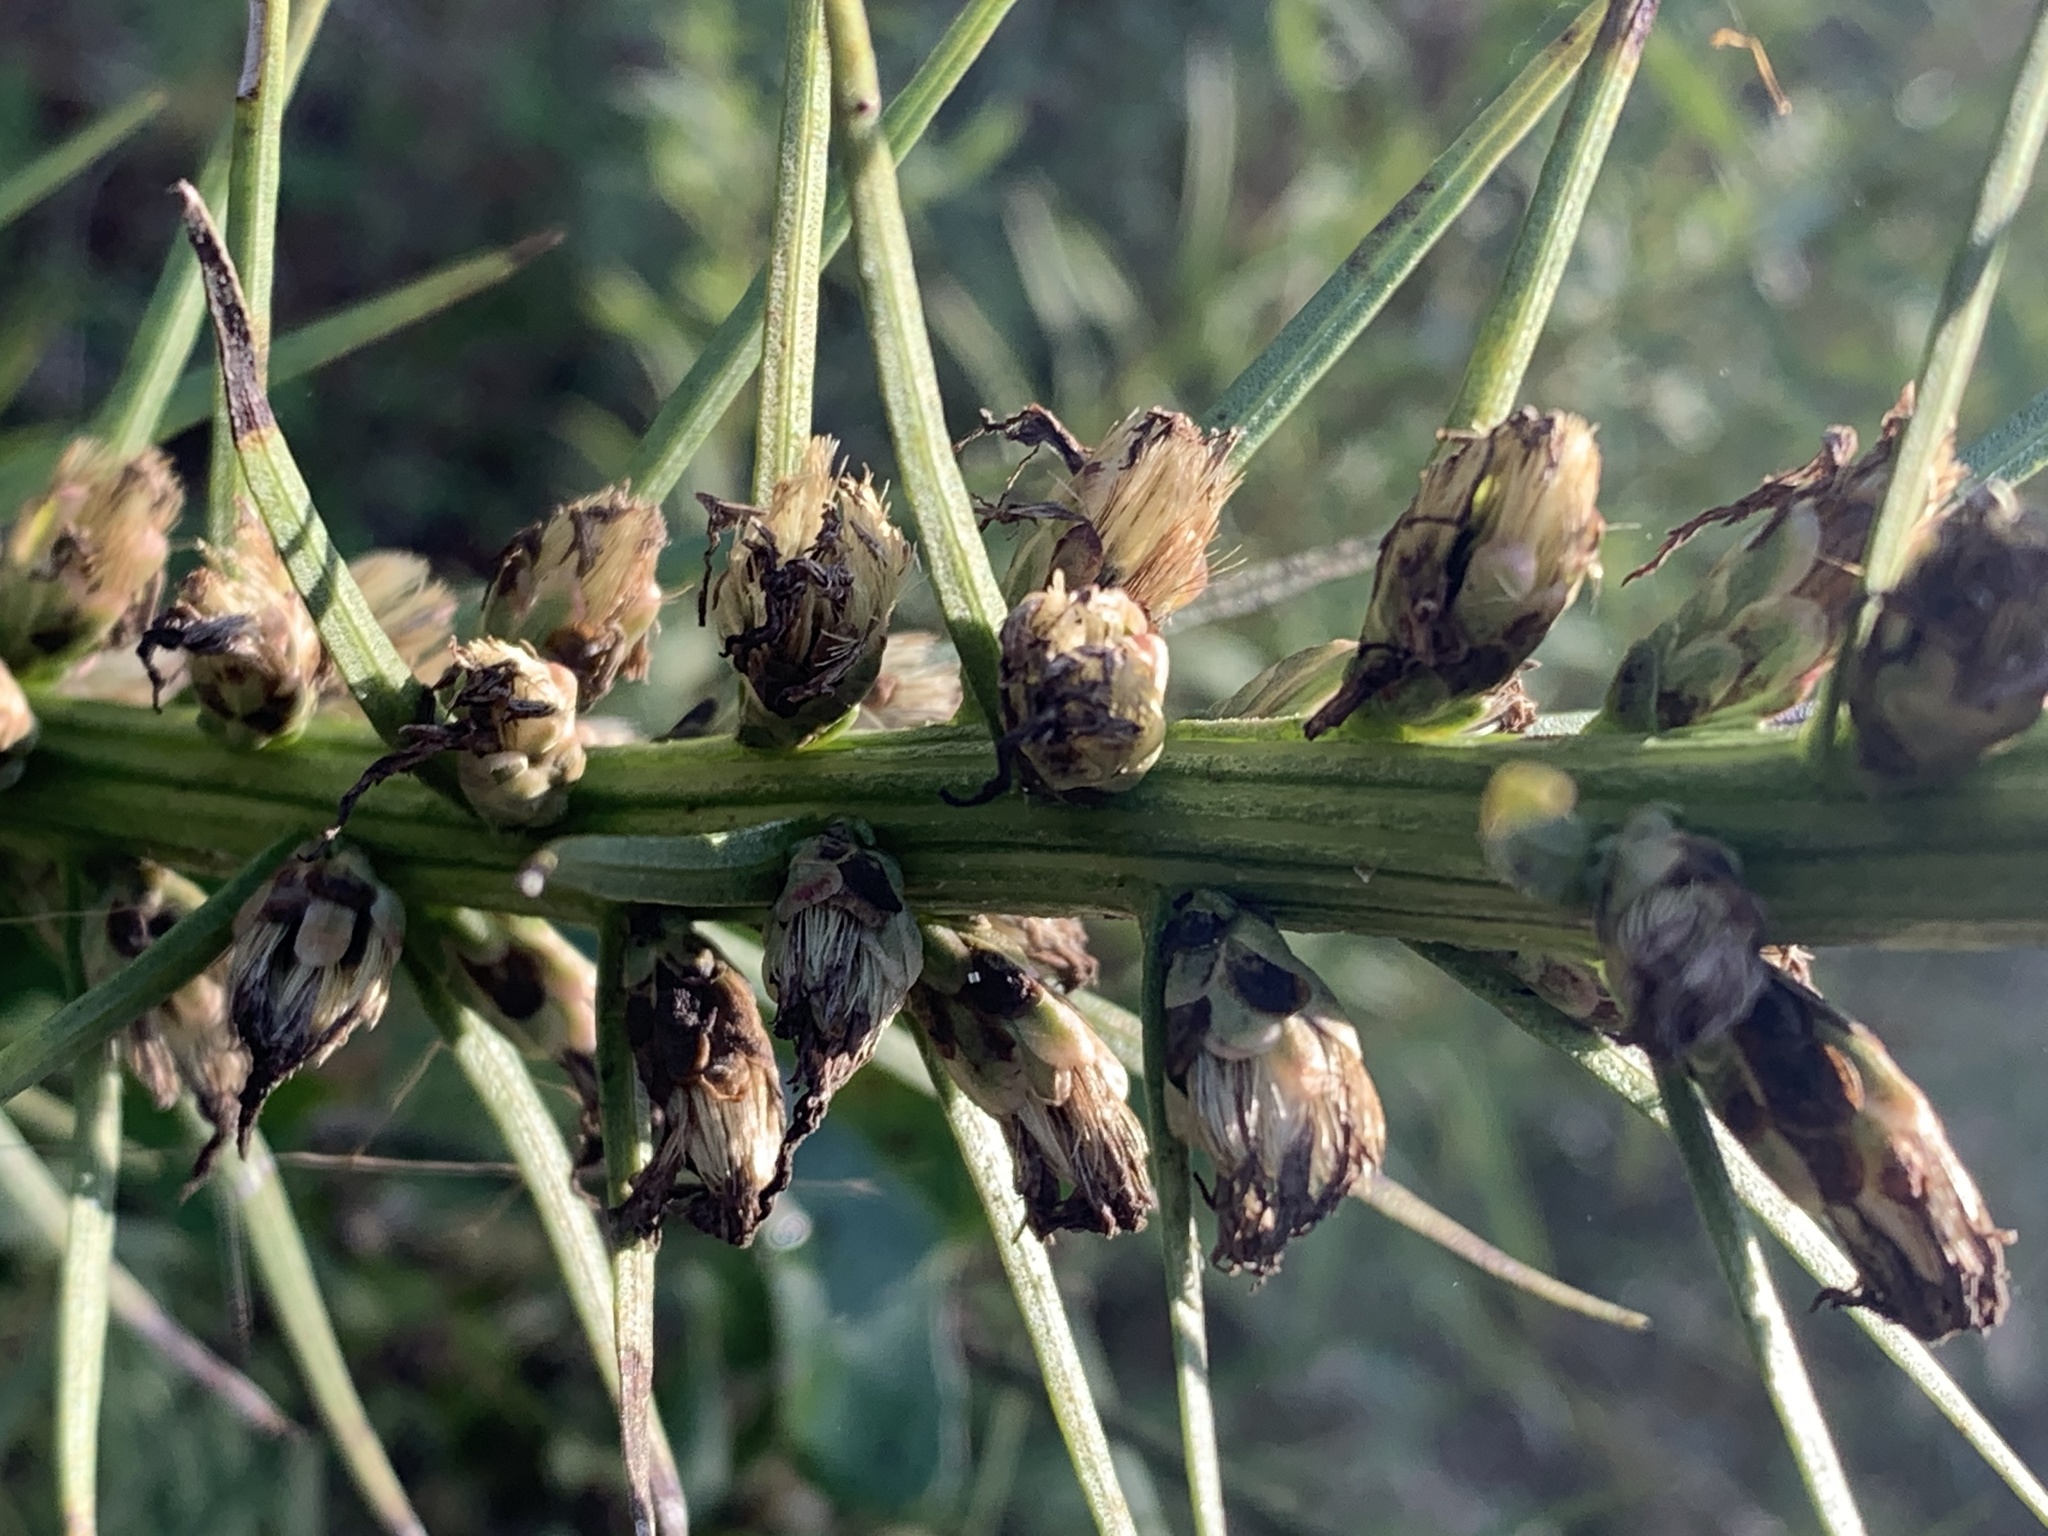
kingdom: Plantae
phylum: Tracheophyta
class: Magnoliopsida
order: Asterales
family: Asteraceae
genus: Liatris
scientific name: Liatris spicata
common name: Florist gayfeather
